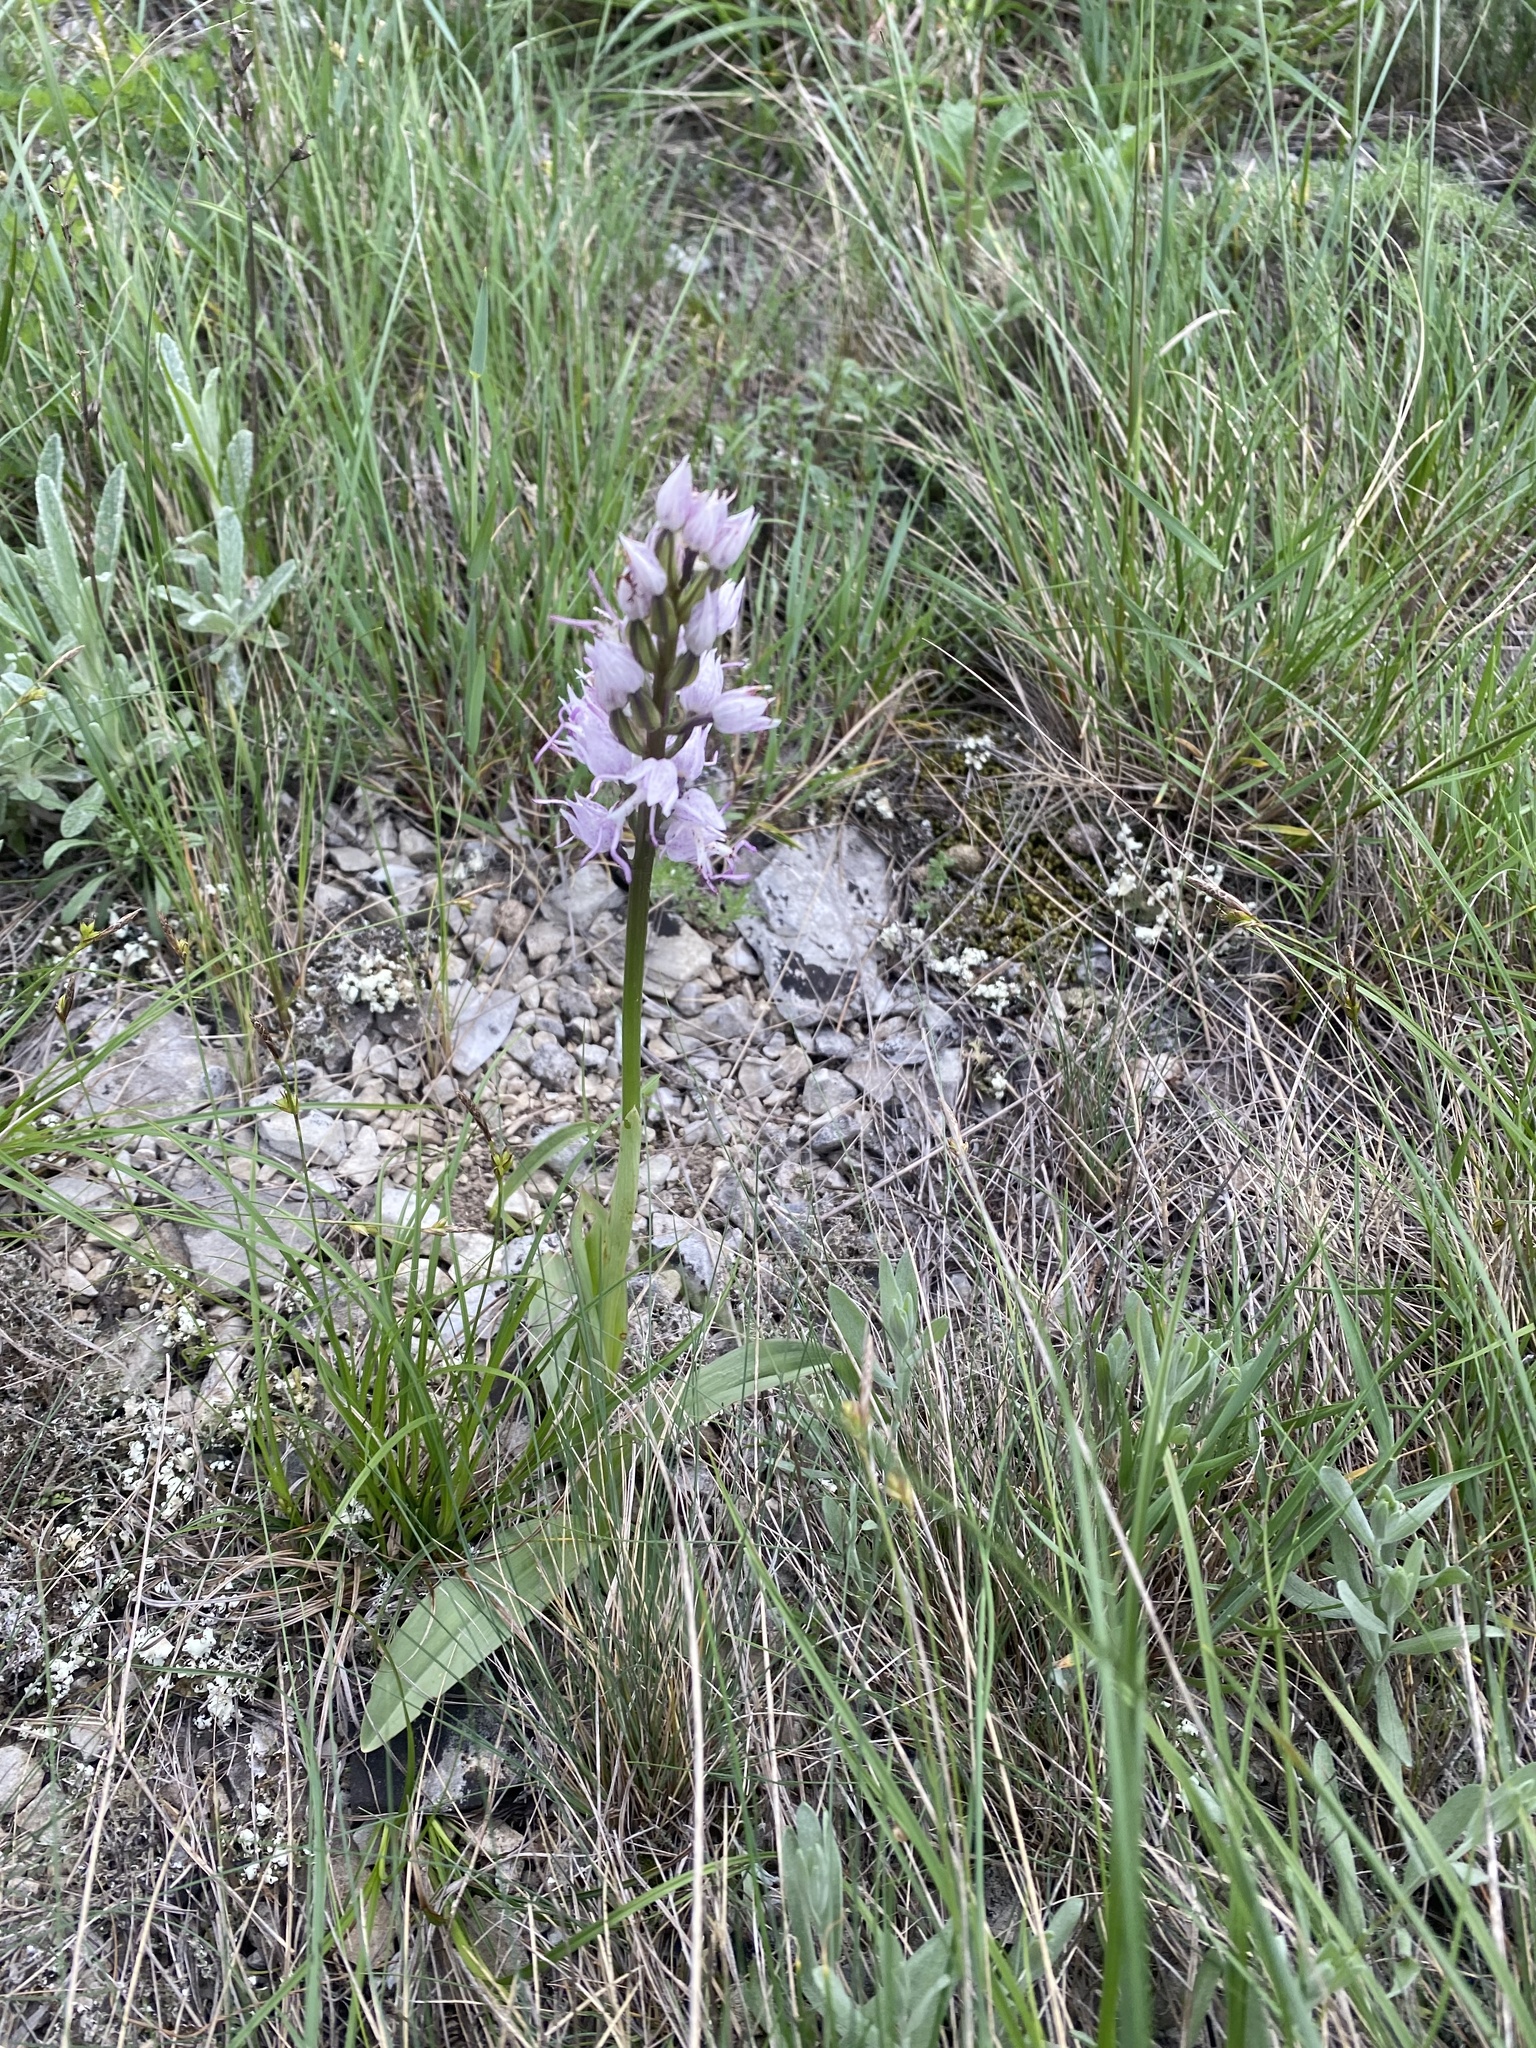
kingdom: Plantae
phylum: Tracheophyta
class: Liliopsida
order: Asparagales
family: Orchidaceae
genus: Orchis
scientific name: Orchis simia
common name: Monkey orchid
